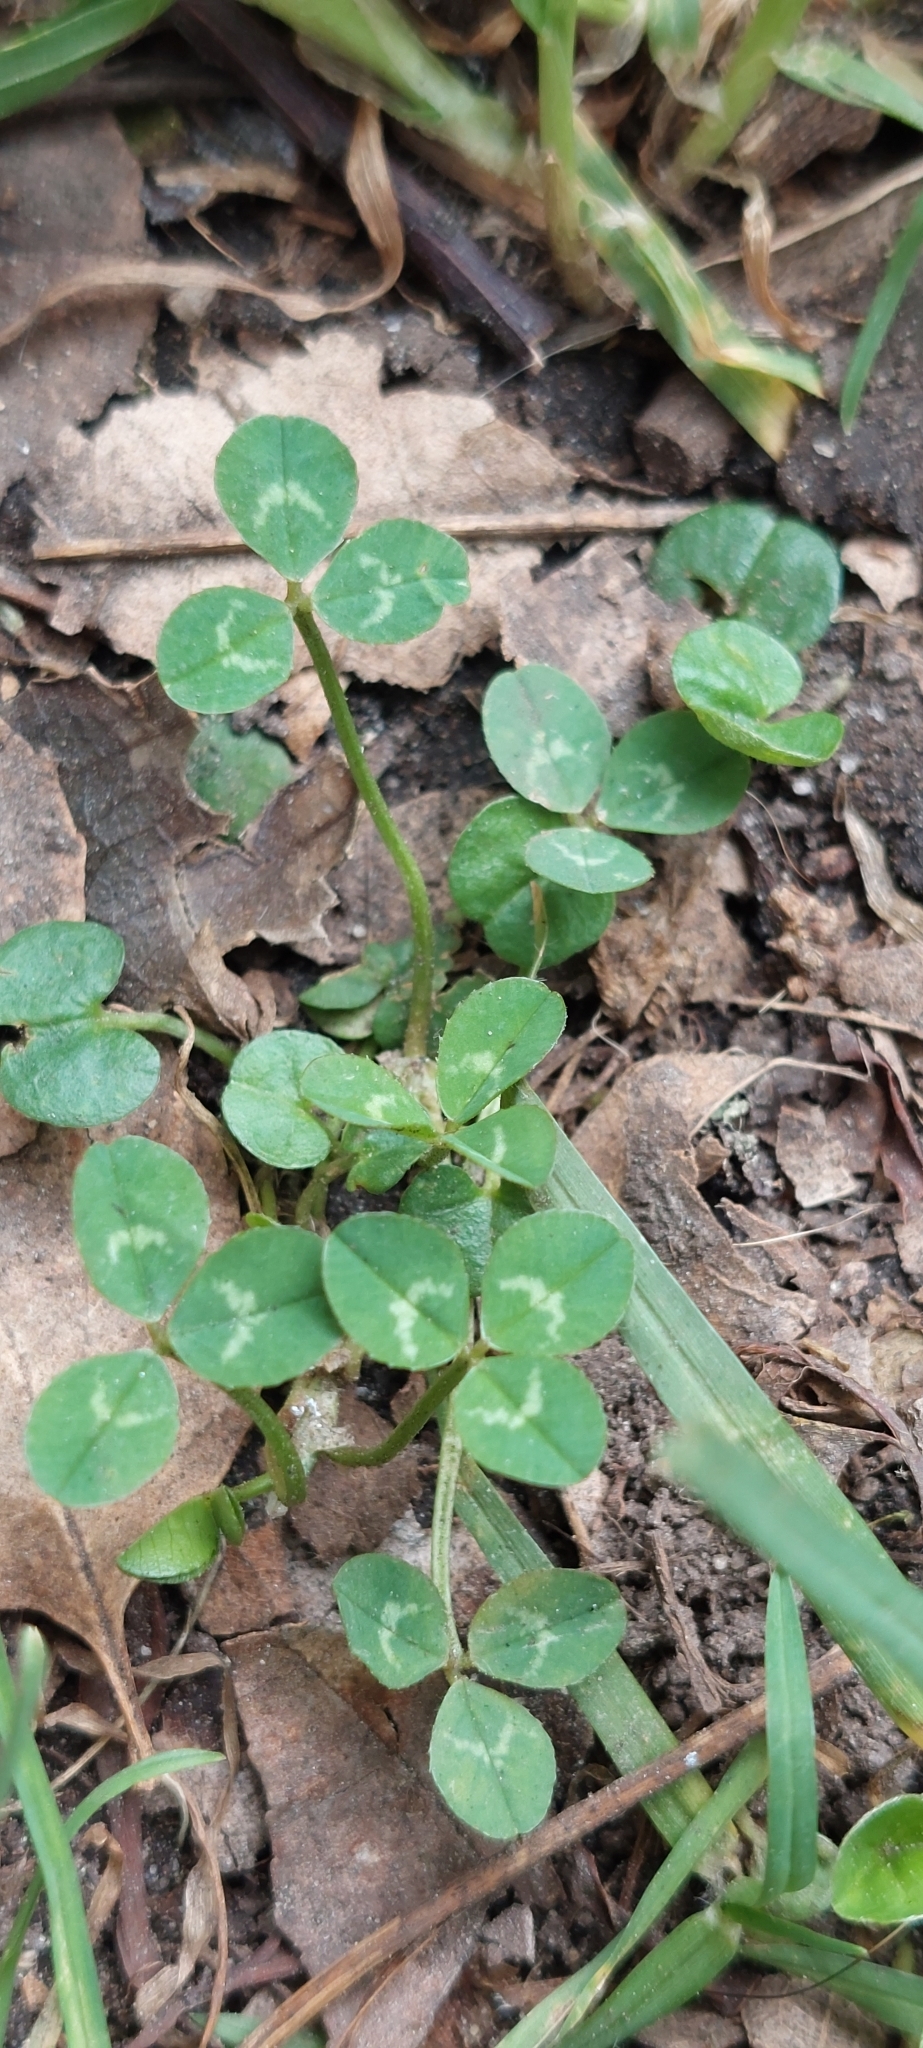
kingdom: Plantae
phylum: Tracheophyta
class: Magnoliopsida
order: Fabales
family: Fabaceae
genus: Trifolium
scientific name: Trifolium repens
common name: White clover
